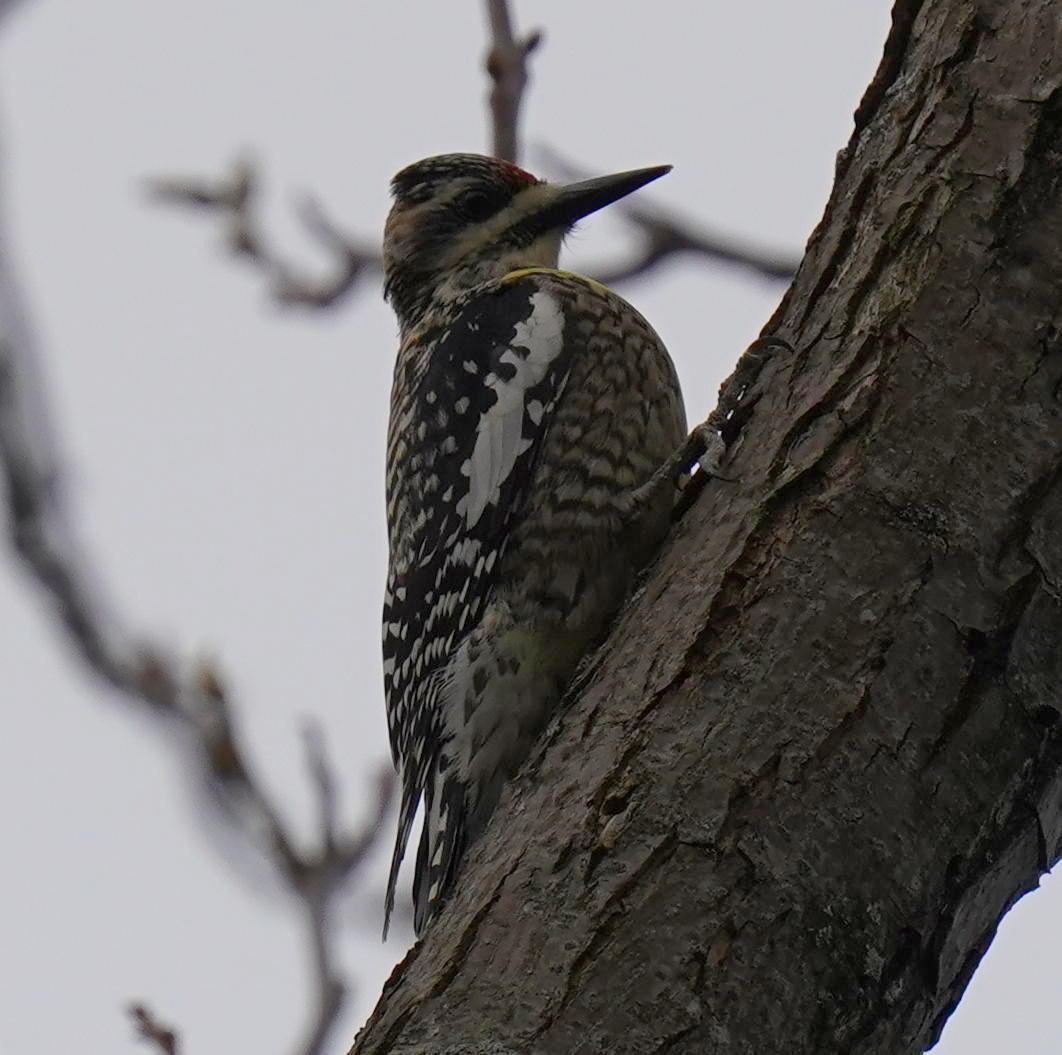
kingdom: Animalia
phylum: Chordata
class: Aves
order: Piciformes
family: Picidae
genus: Sphyrapicus
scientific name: Sphyrapicus varius
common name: Yellow-bellied sapsucker
